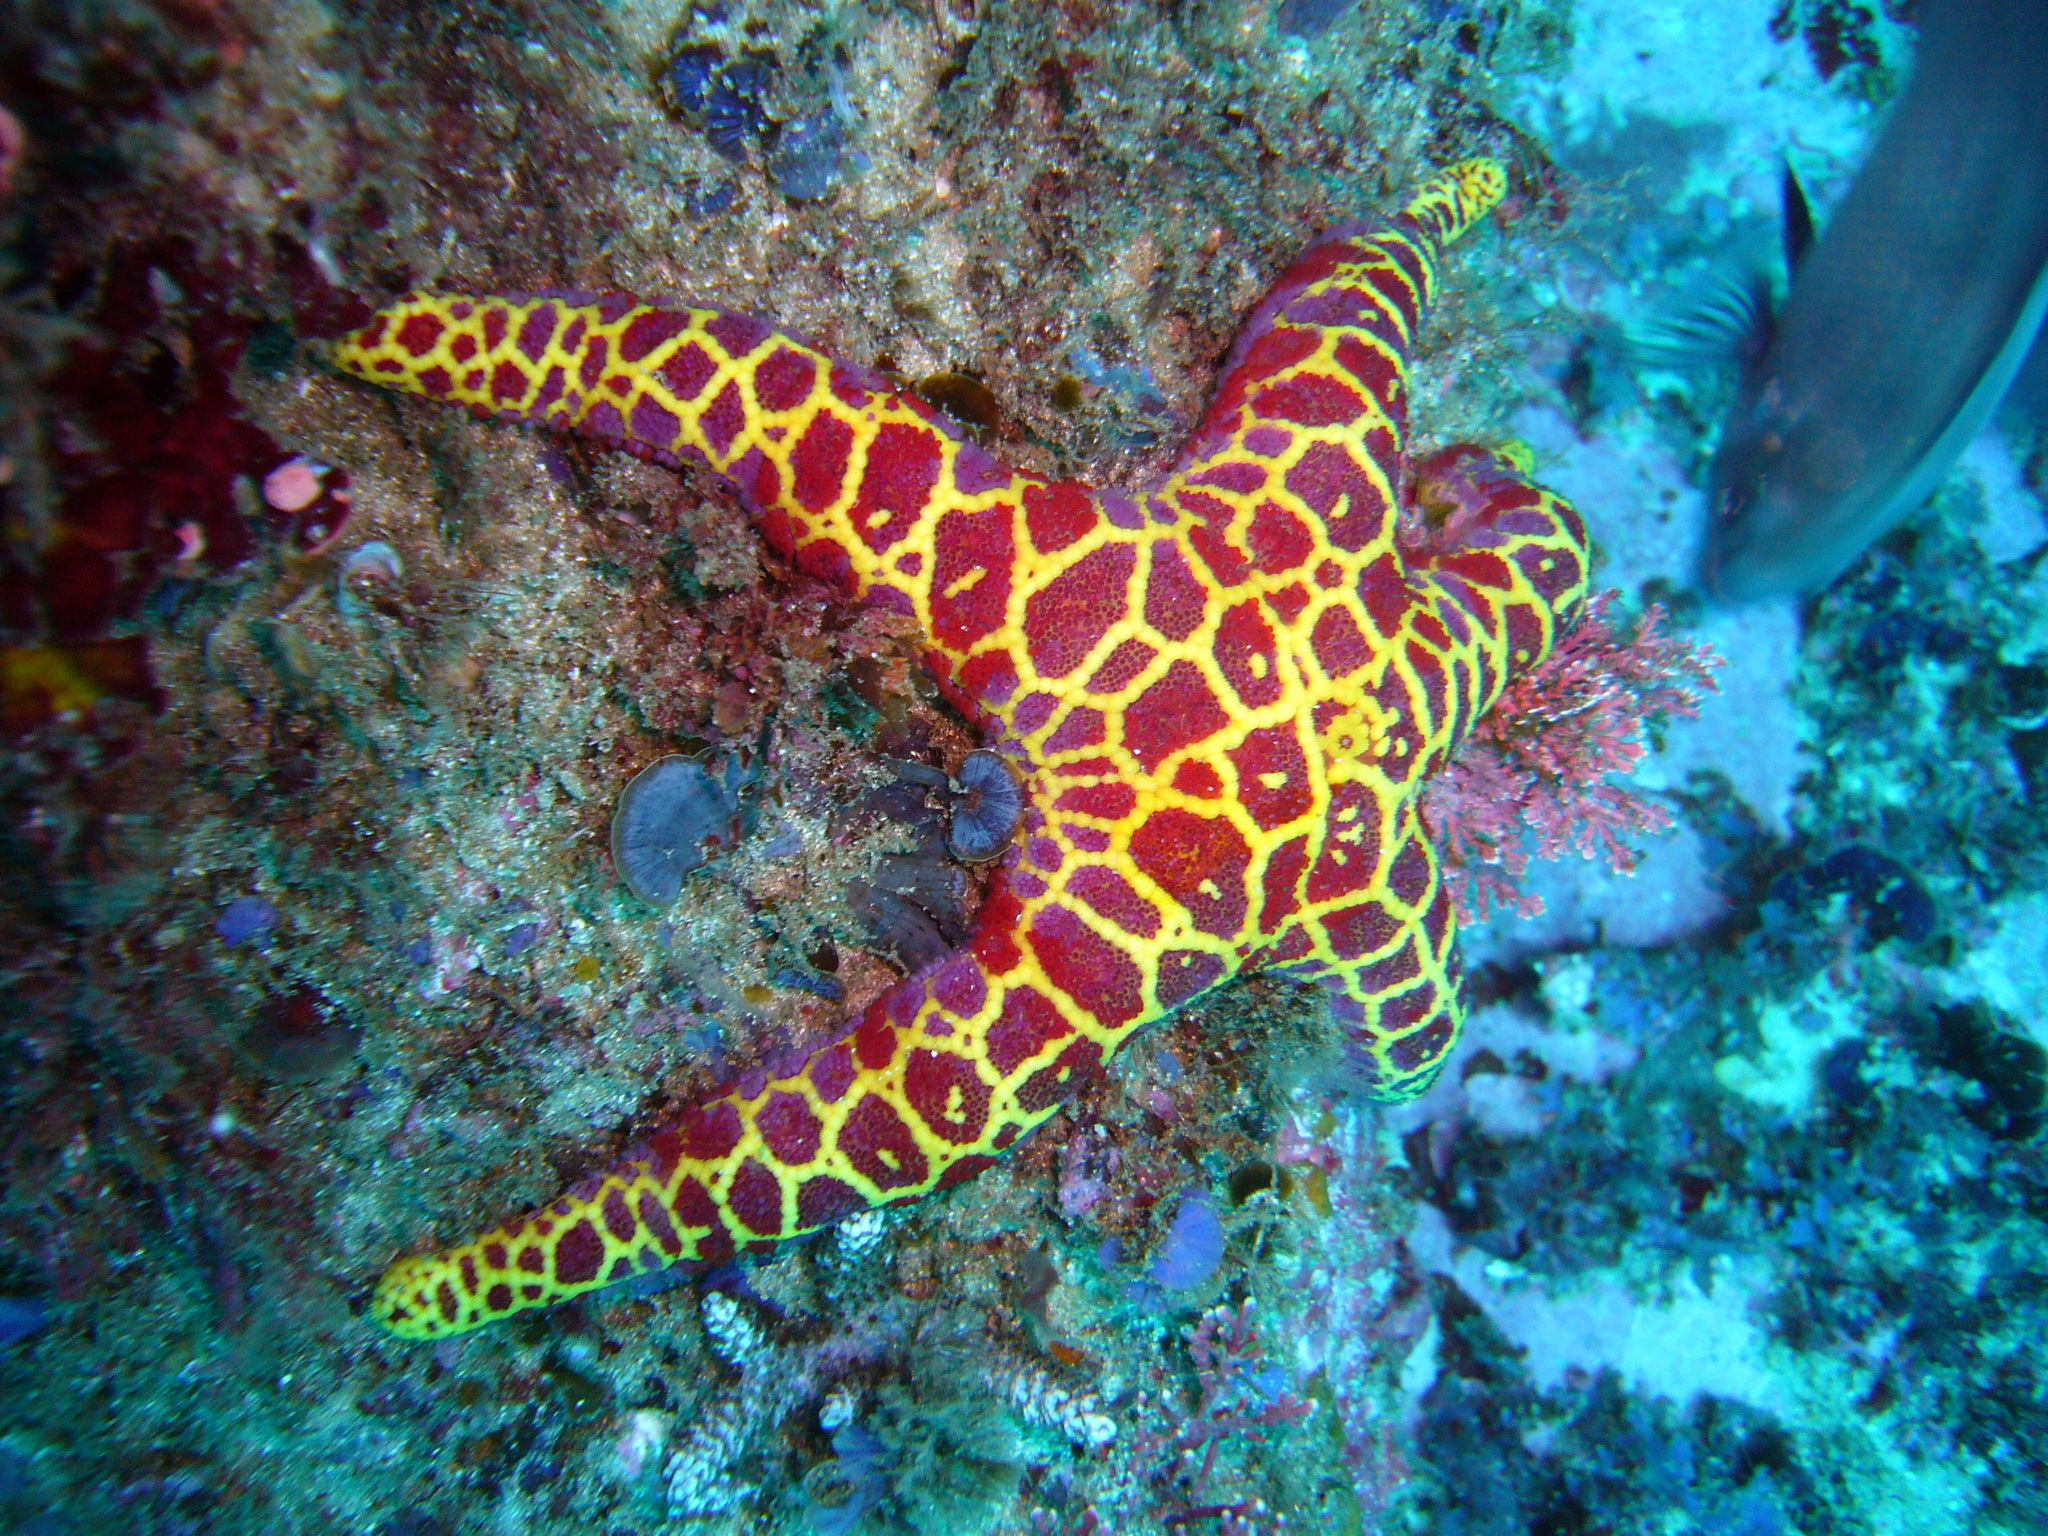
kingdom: Animalia
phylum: Echinodermata
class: Asteroidea
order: Spinulosida
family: Echinasteridae
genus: Plectaster
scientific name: Plectaster decanus
